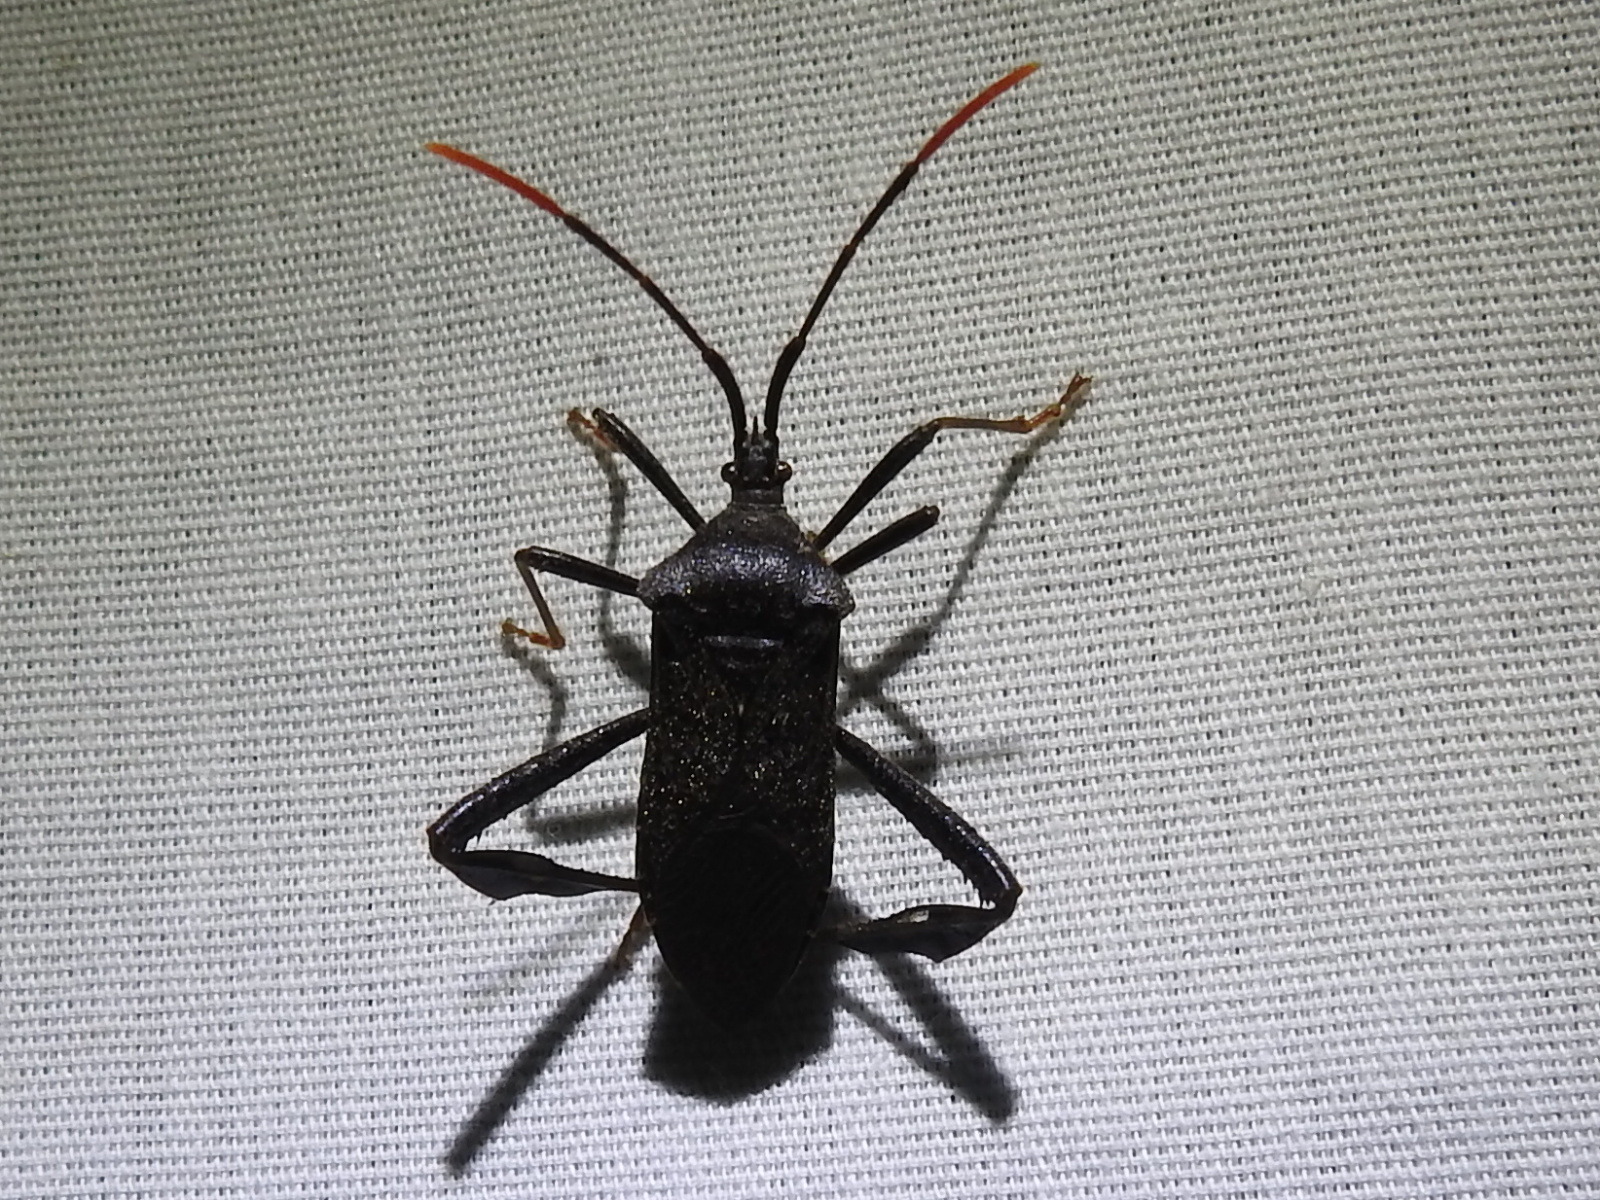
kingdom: Animalia
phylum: Arthropoda
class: Insecta
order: Hemiptera
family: Coreidae
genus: Acanthocephala
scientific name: Acanthocephala terminalis
